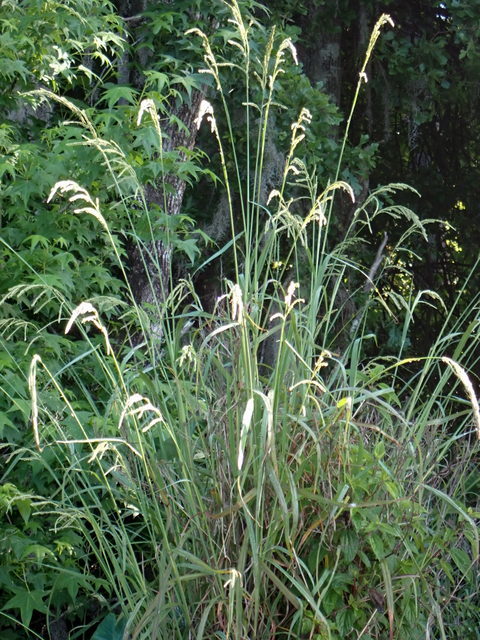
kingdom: Plantae
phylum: Tracheophyta
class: Liliopsida
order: Poales
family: Poaceae
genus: Paspalum
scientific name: Paspalum urvillei
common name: Vasey's grass
